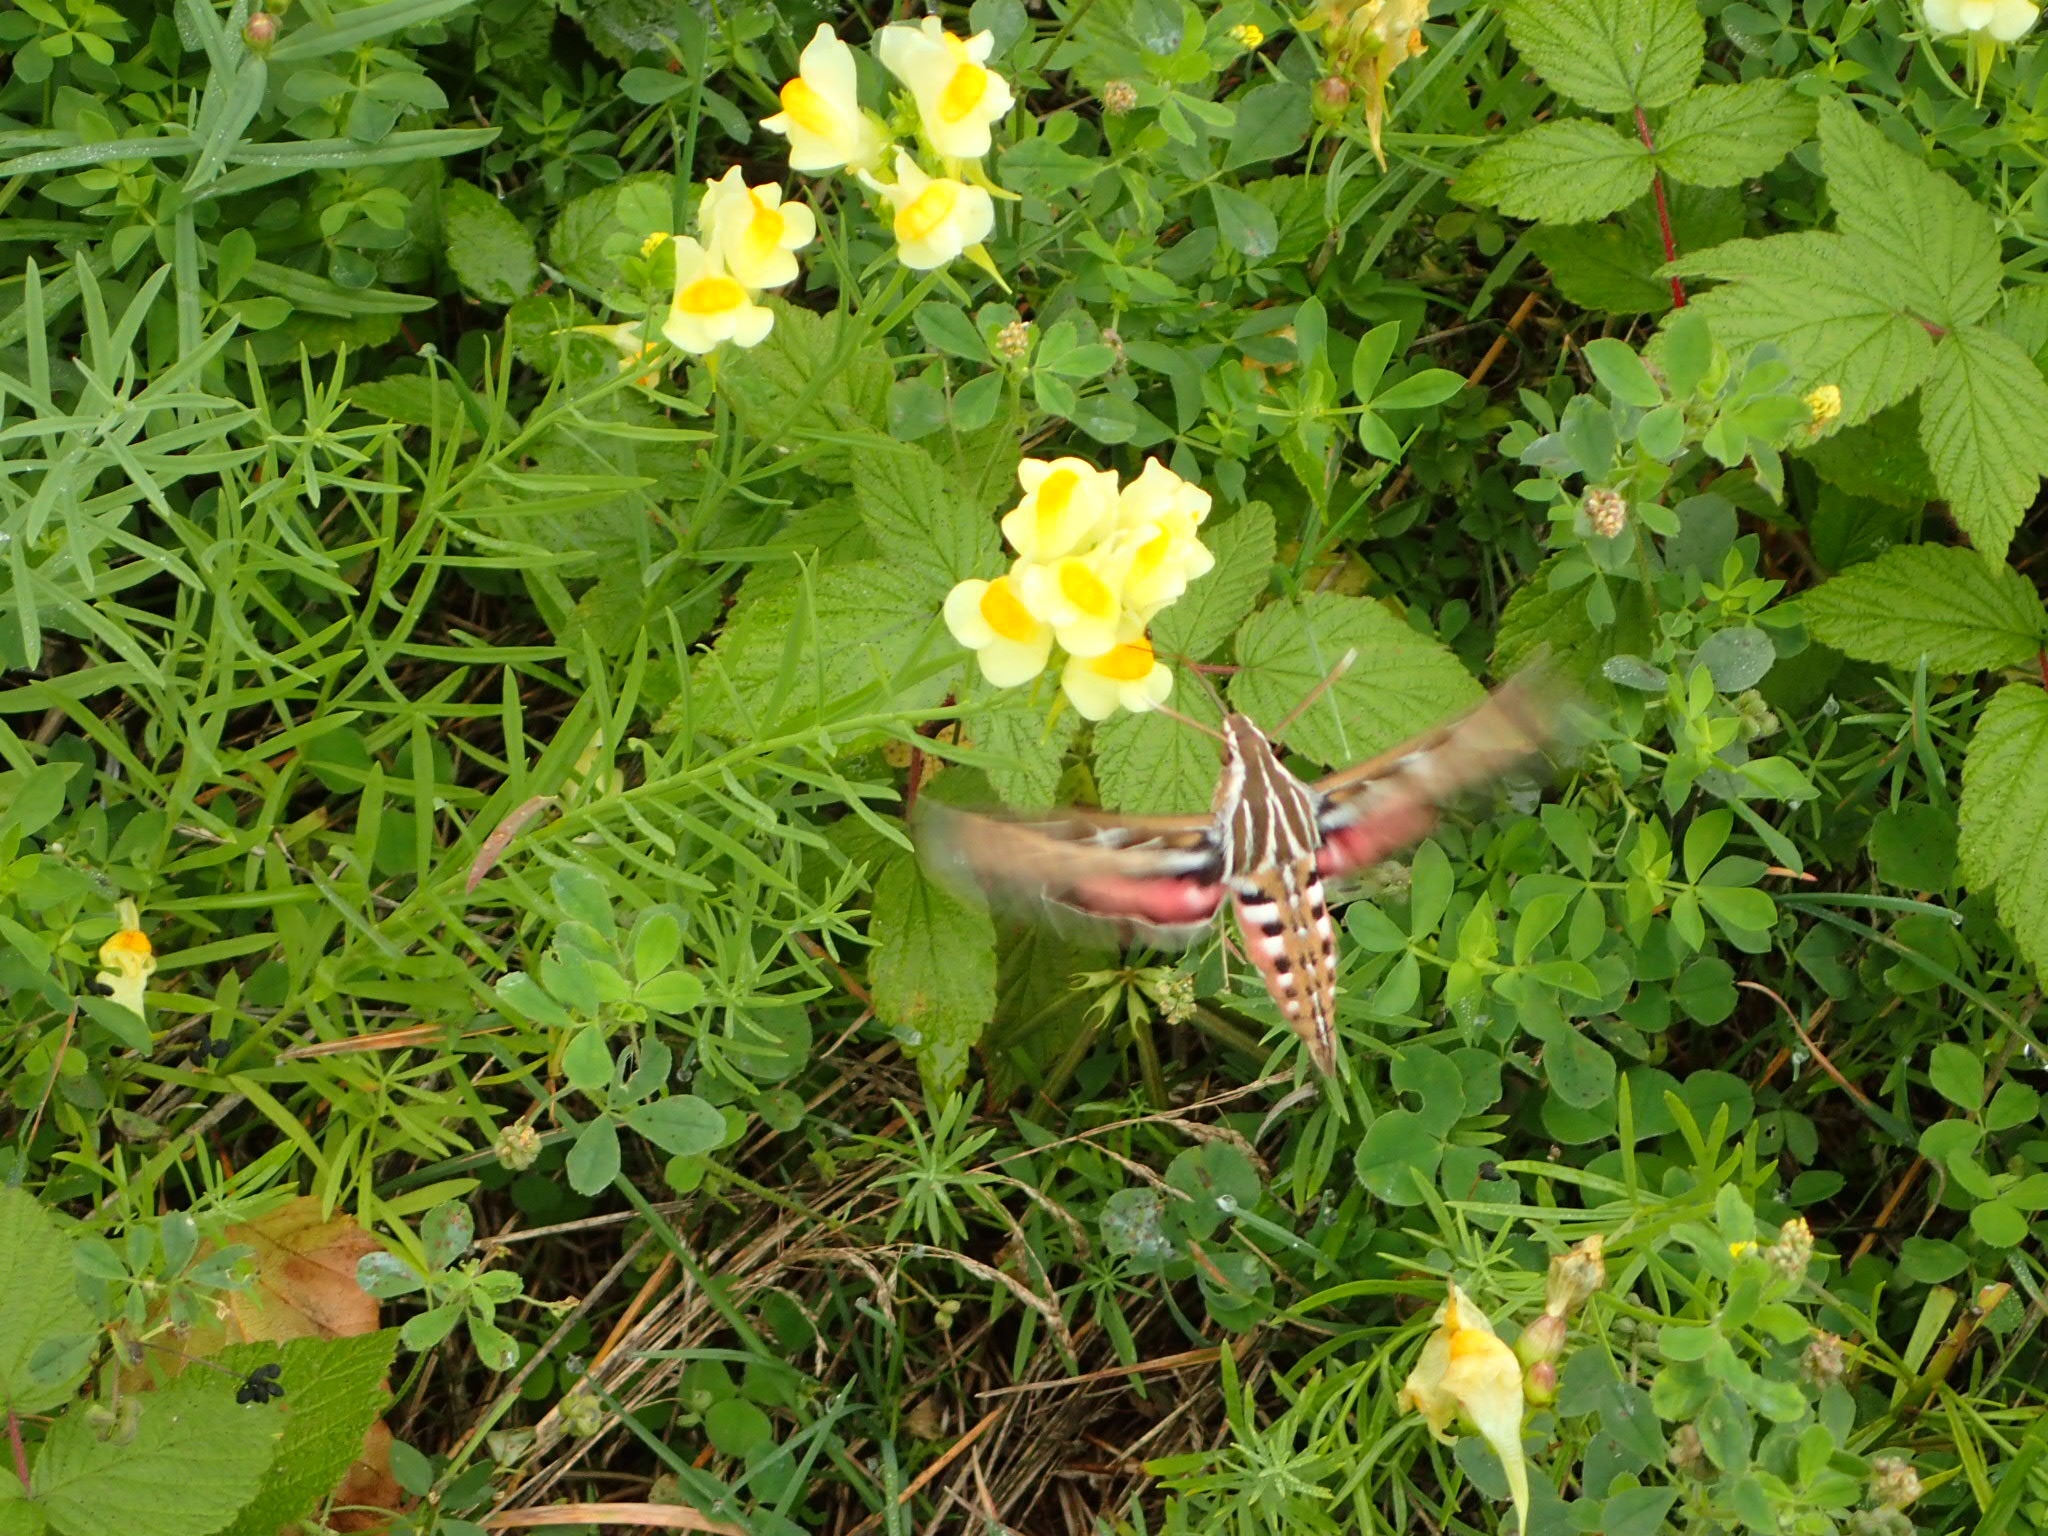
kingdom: Animalia
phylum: Arthropoda
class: Insecta
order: Lepidoptera
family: Sphingidae
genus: Hyles
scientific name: Hyles lineata
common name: White-lined sphinx
